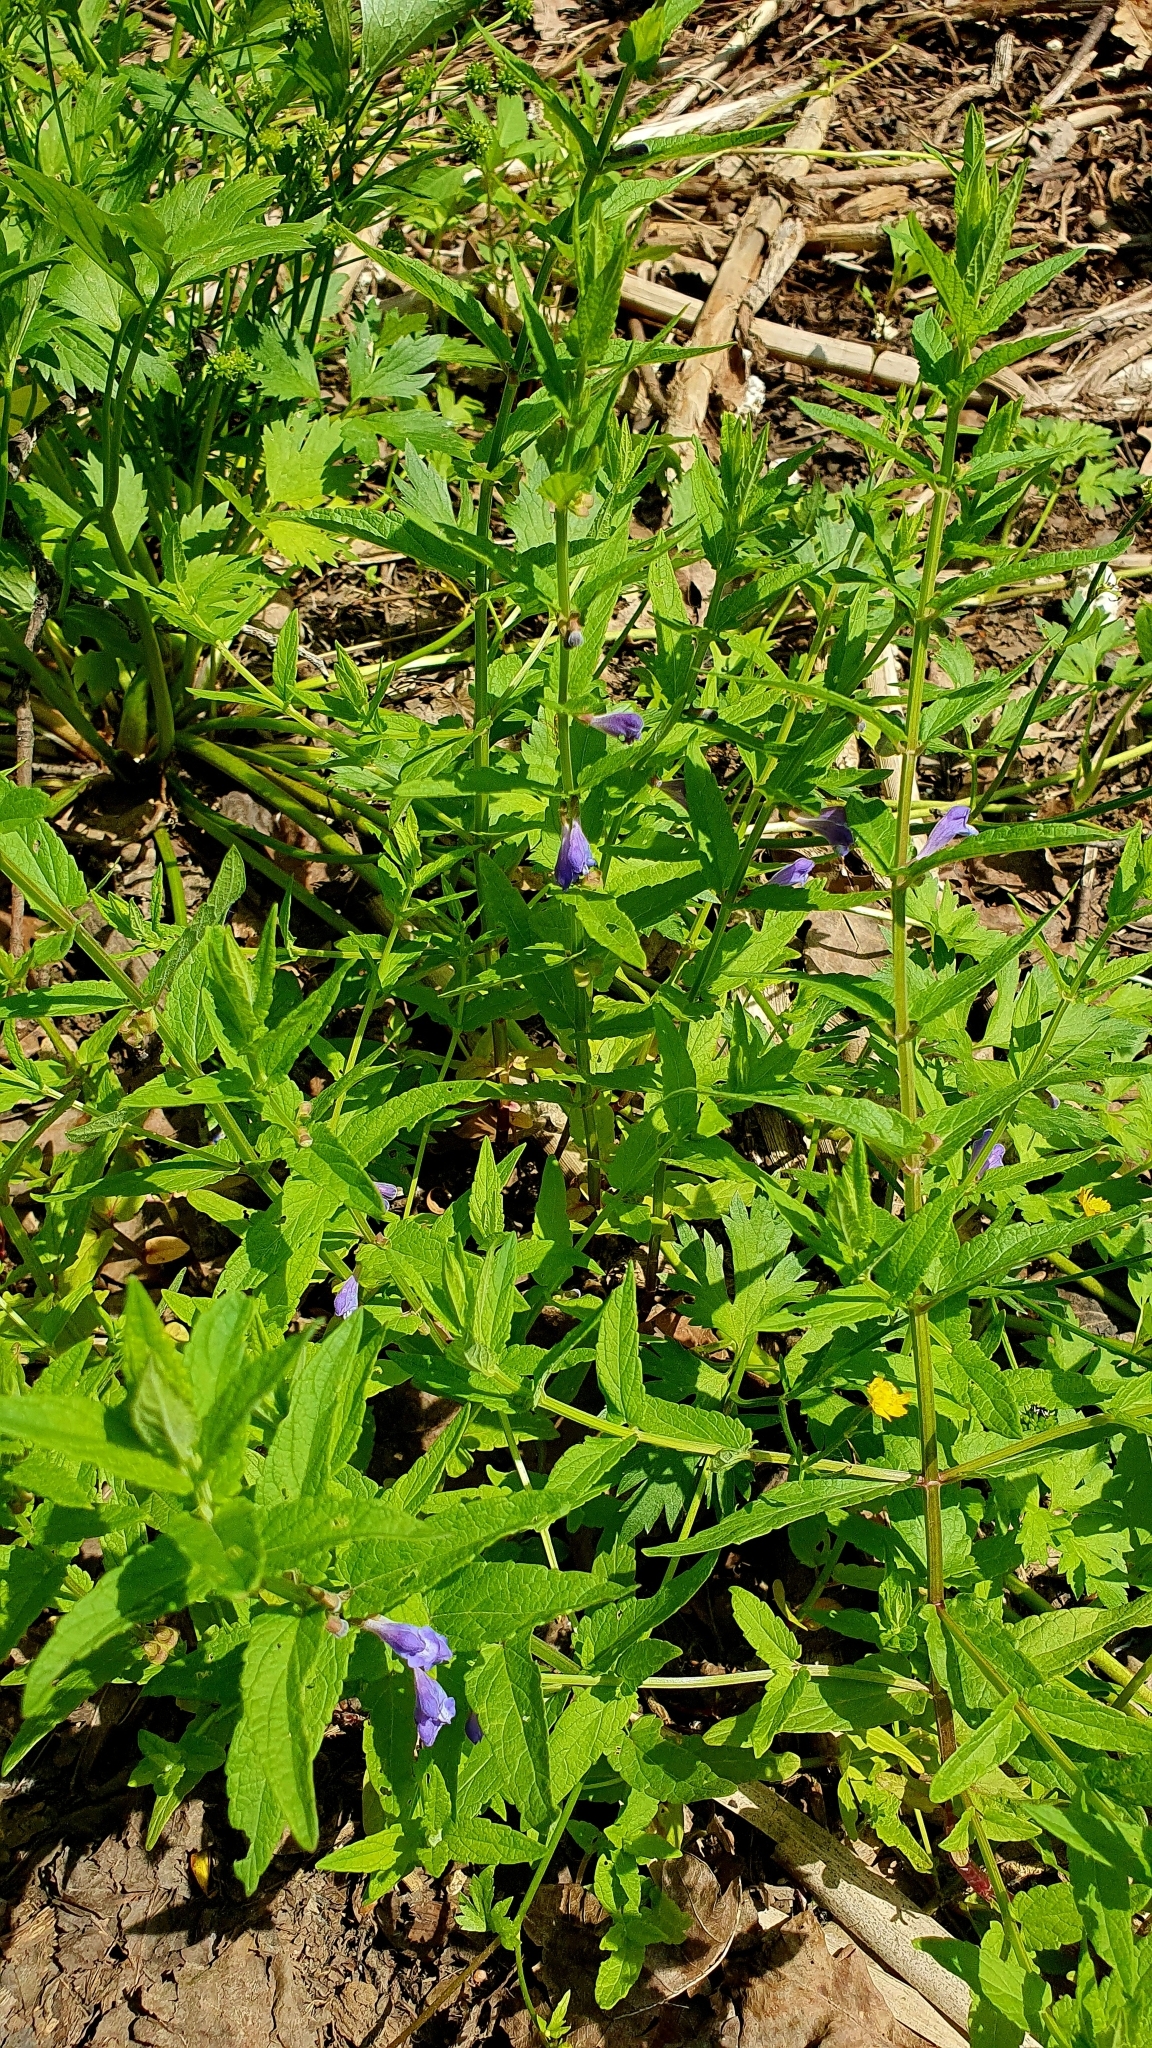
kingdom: Plantae
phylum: Tracheophyta
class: Magnoliopsida
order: Lamiales
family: Lamiaceae
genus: Scutellaria
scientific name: Scutellaria galericulata
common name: Skullcap
